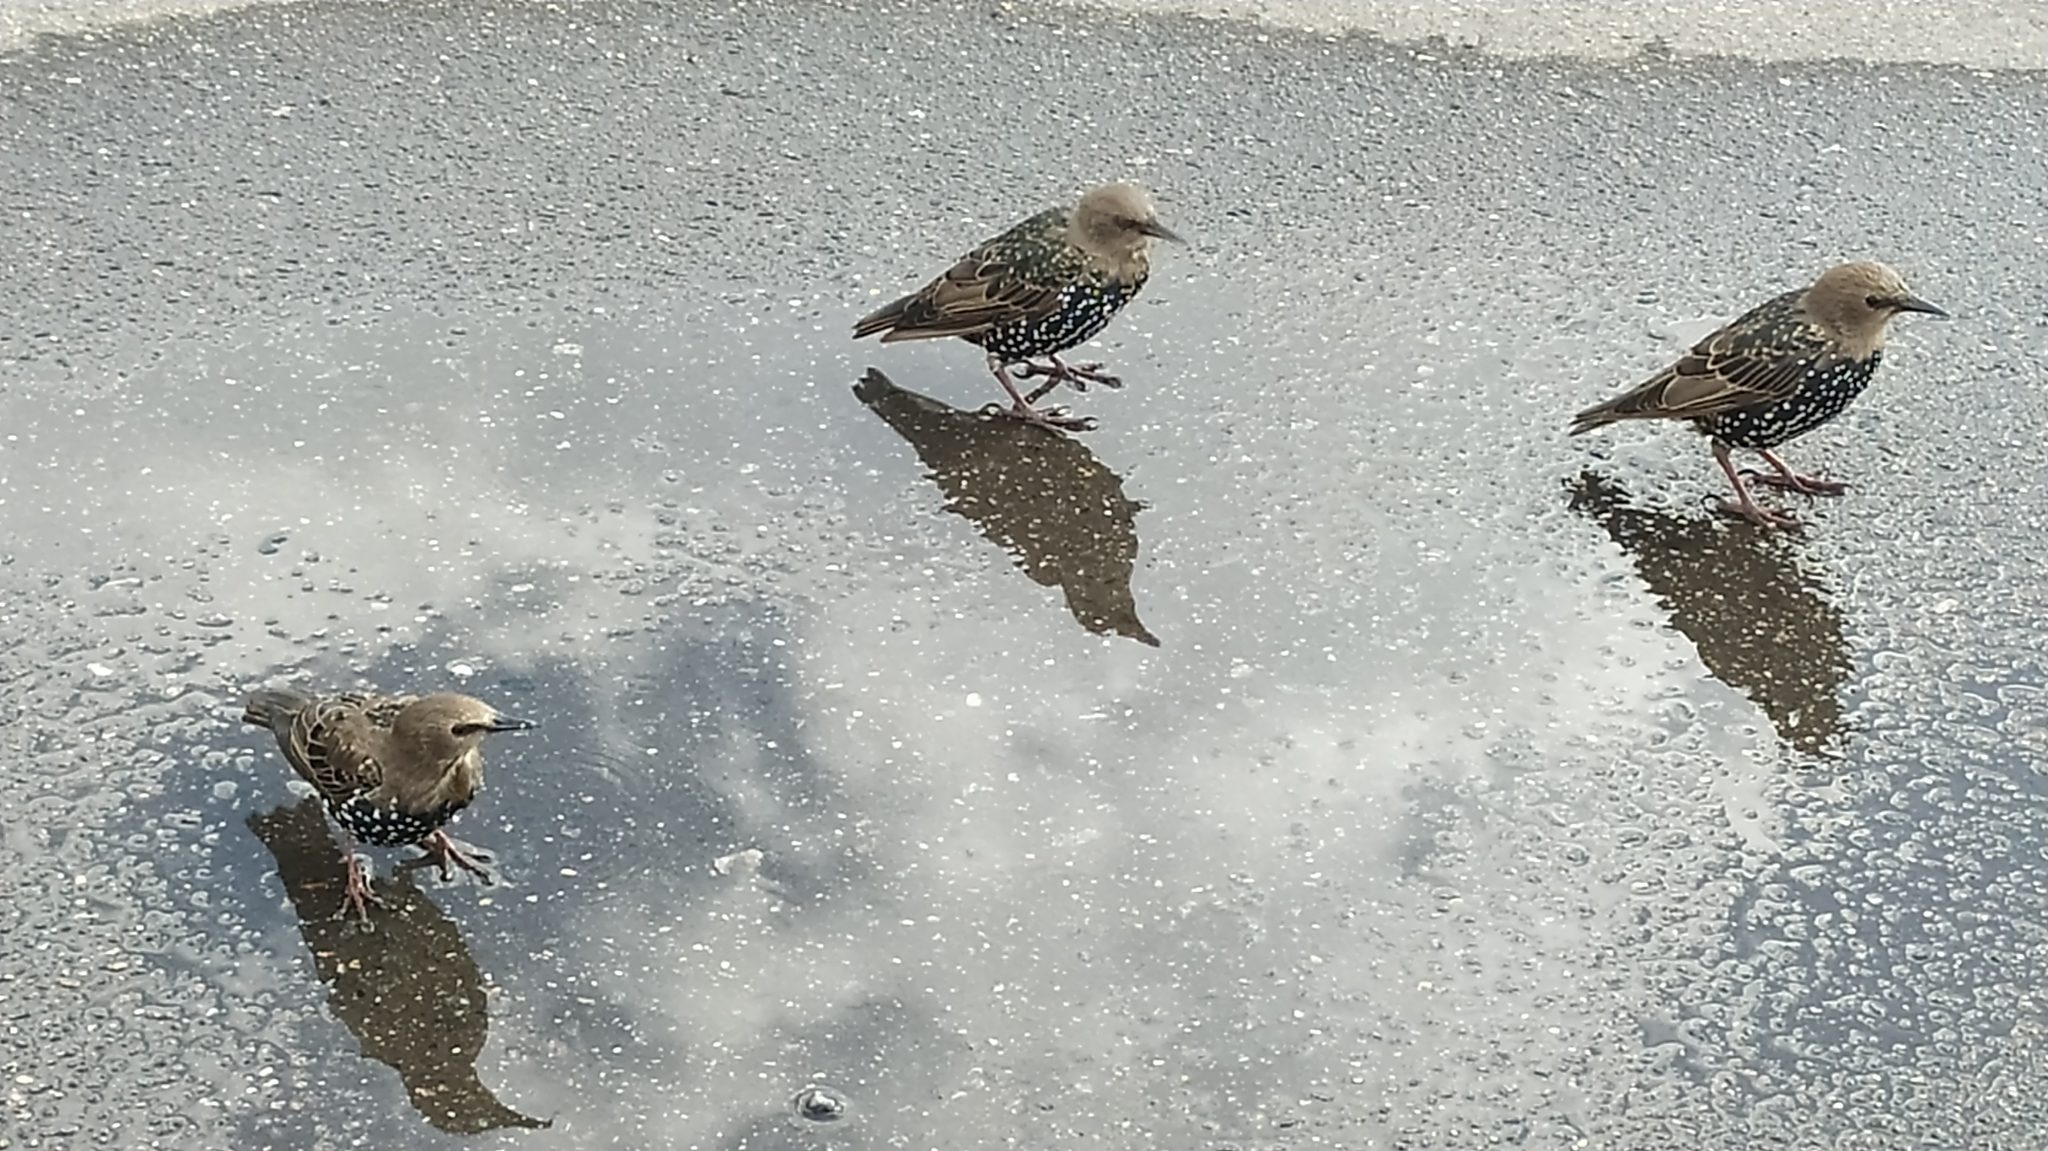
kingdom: Animalia
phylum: Chordata
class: Aves
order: Passeriformes
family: Sturnidae
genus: Sturnus
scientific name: Sturnus vulgaris
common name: Common starling
